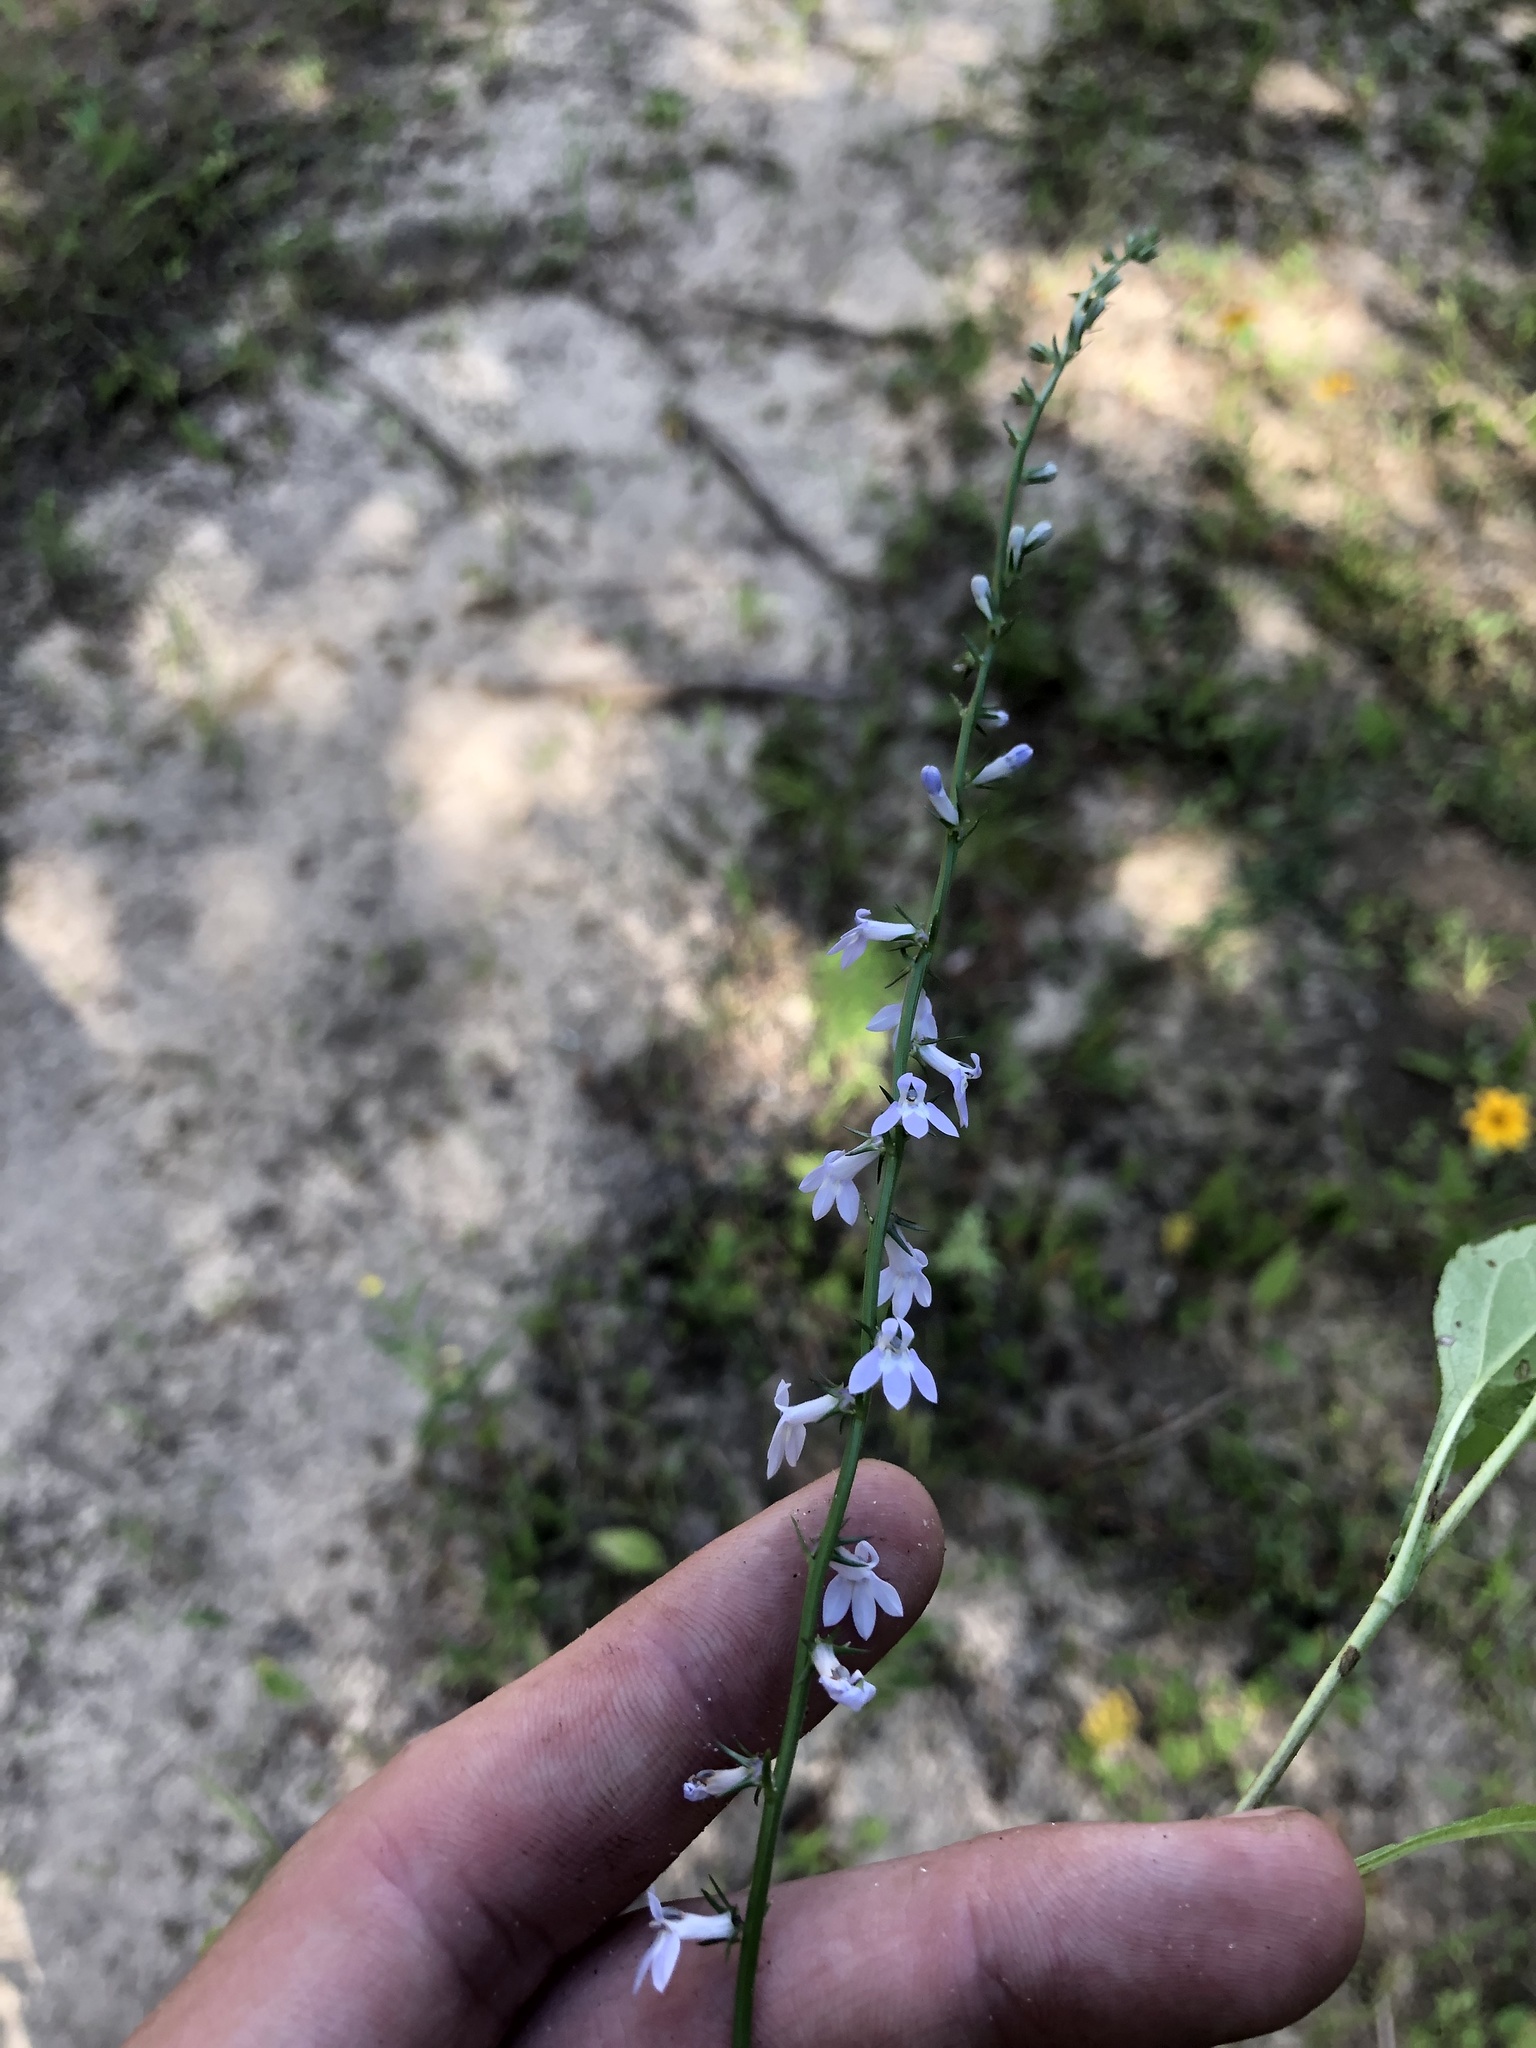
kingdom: Plantae
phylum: Tracheophyta
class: Magnoliopsida
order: Asterales
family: Campanulaceae
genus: Lobelia
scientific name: Lobelia spicata
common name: Pale-spike lobelia
